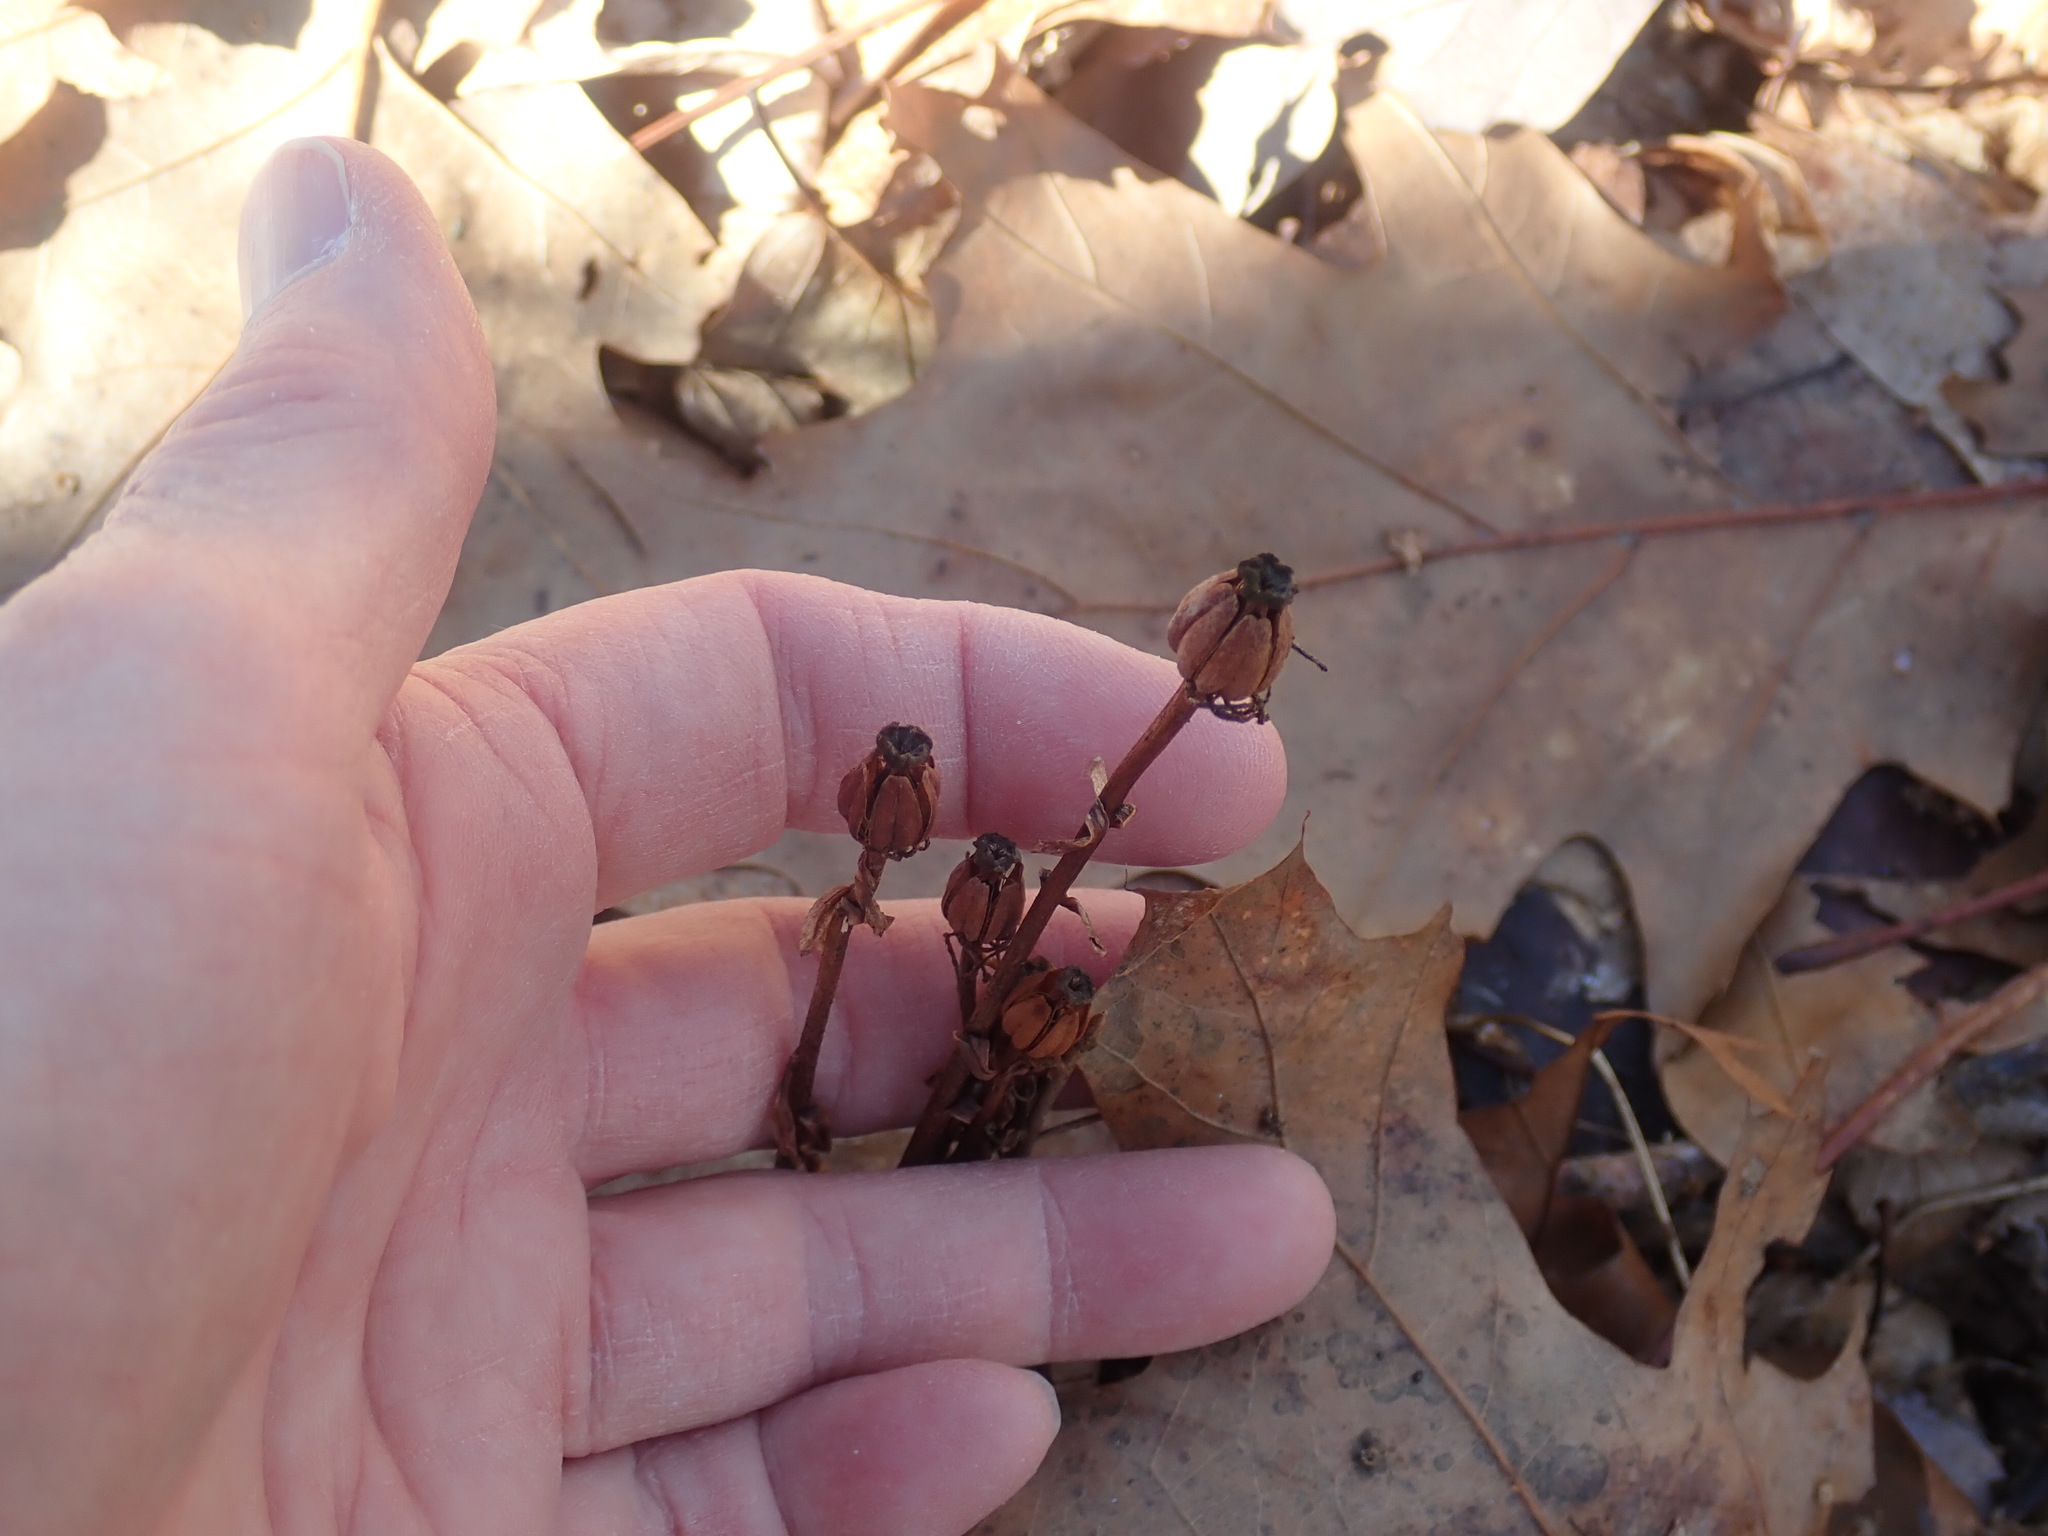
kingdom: Plantae
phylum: Tracheophyta
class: Magnoliopsida
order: Ericales
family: Ericaceae
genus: Monotropa
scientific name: Monotropa uniflora
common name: Convulsion root
